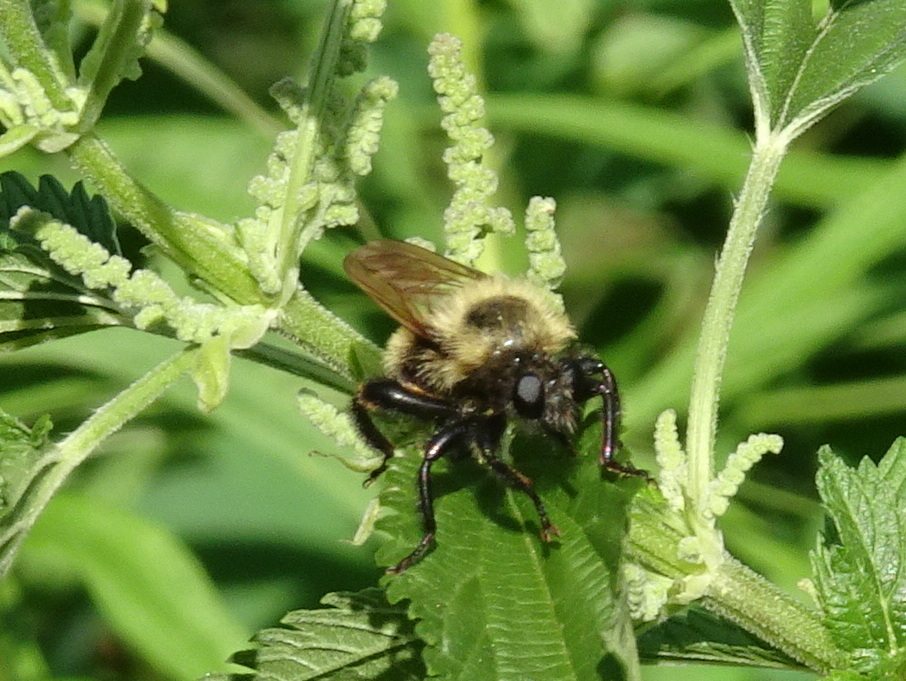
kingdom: Animalia
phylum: Arthropoda
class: Insecta
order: Diptera
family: Asilidae
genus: Laphria
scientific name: Laphria thoracica
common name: Bumble bee mimic robber fly
